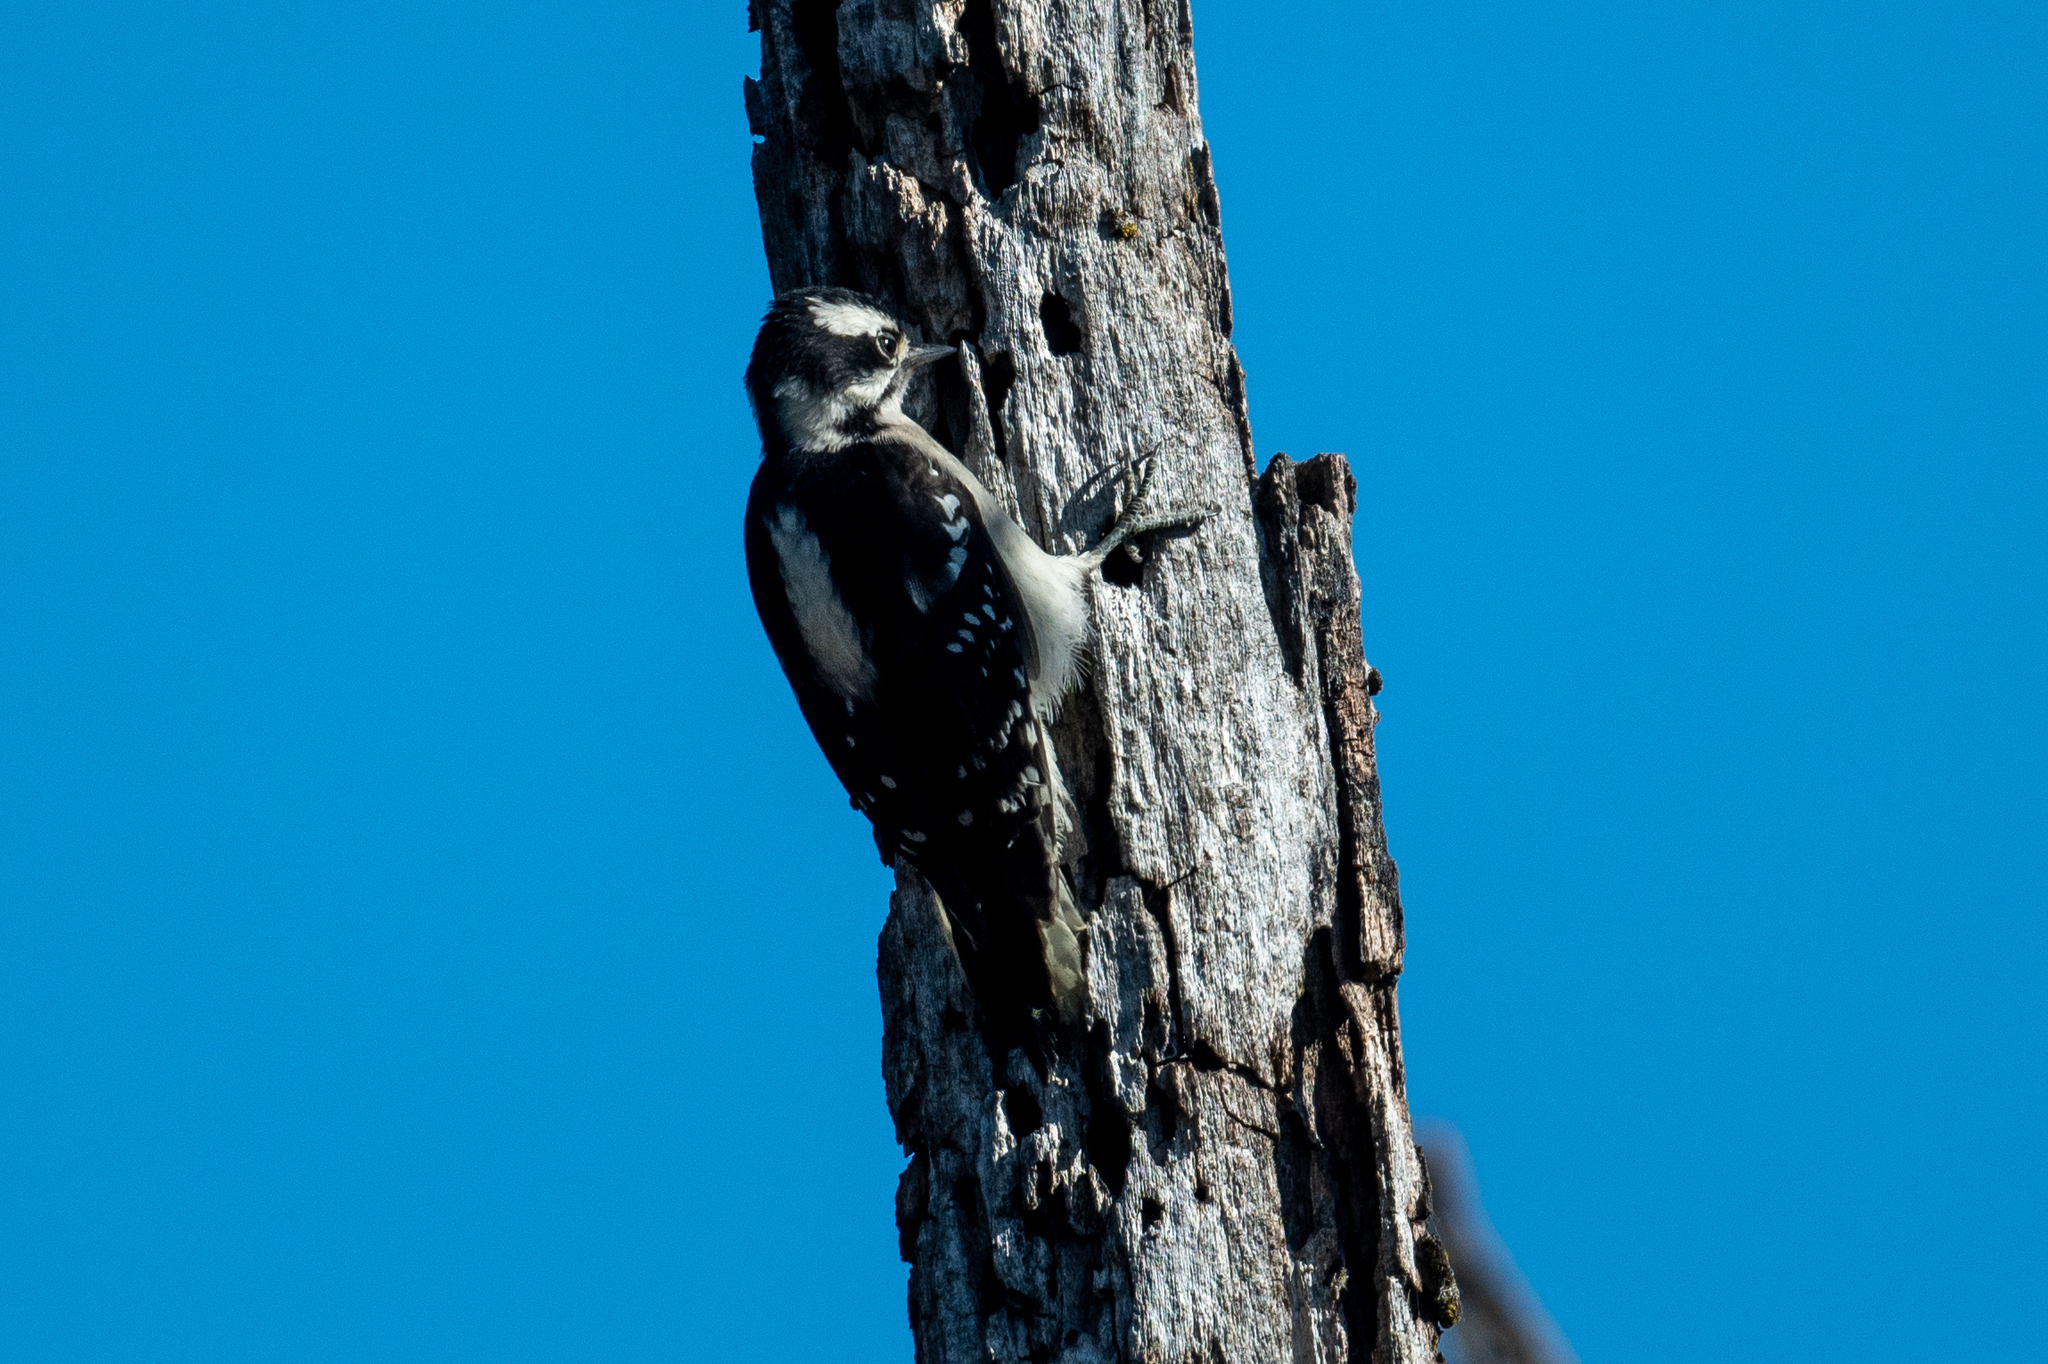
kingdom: Animalia
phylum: Chordata
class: Aves
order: Piciformes
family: Picidae
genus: Dryobates
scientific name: Dryobates pubescens
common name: Downy woodpecker
